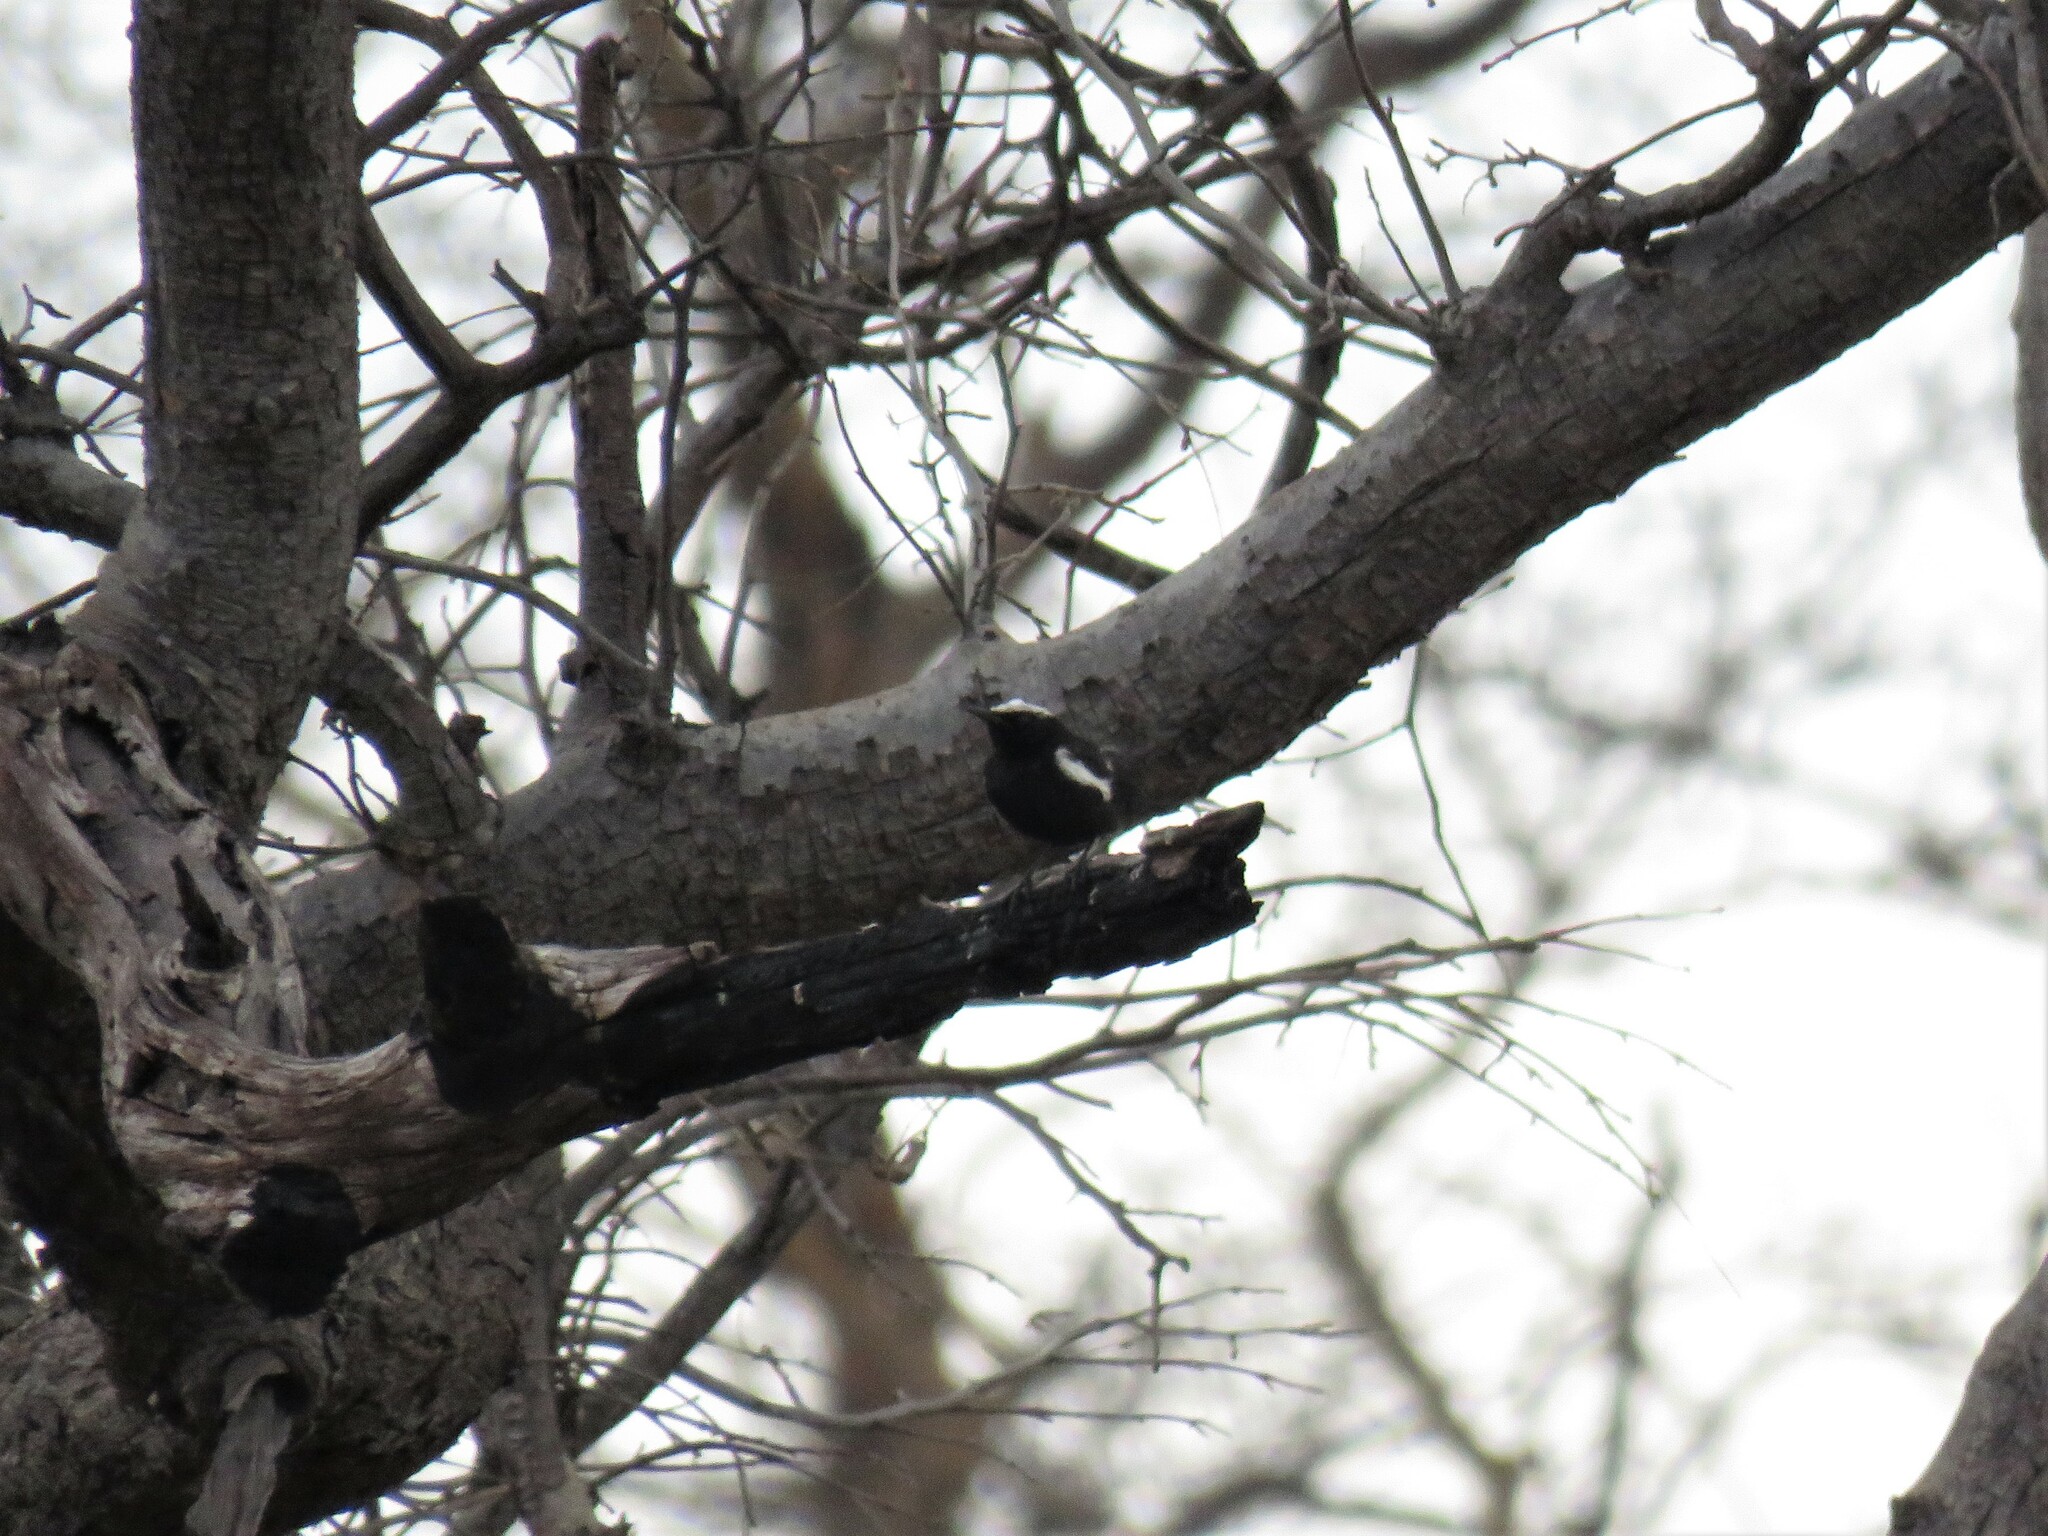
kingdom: Animalia
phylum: Chordata
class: Aves
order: Passeriformes
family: Muscicapidae
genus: Pentholaea
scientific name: Pentholaea arnotti
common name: Arnot's chat
